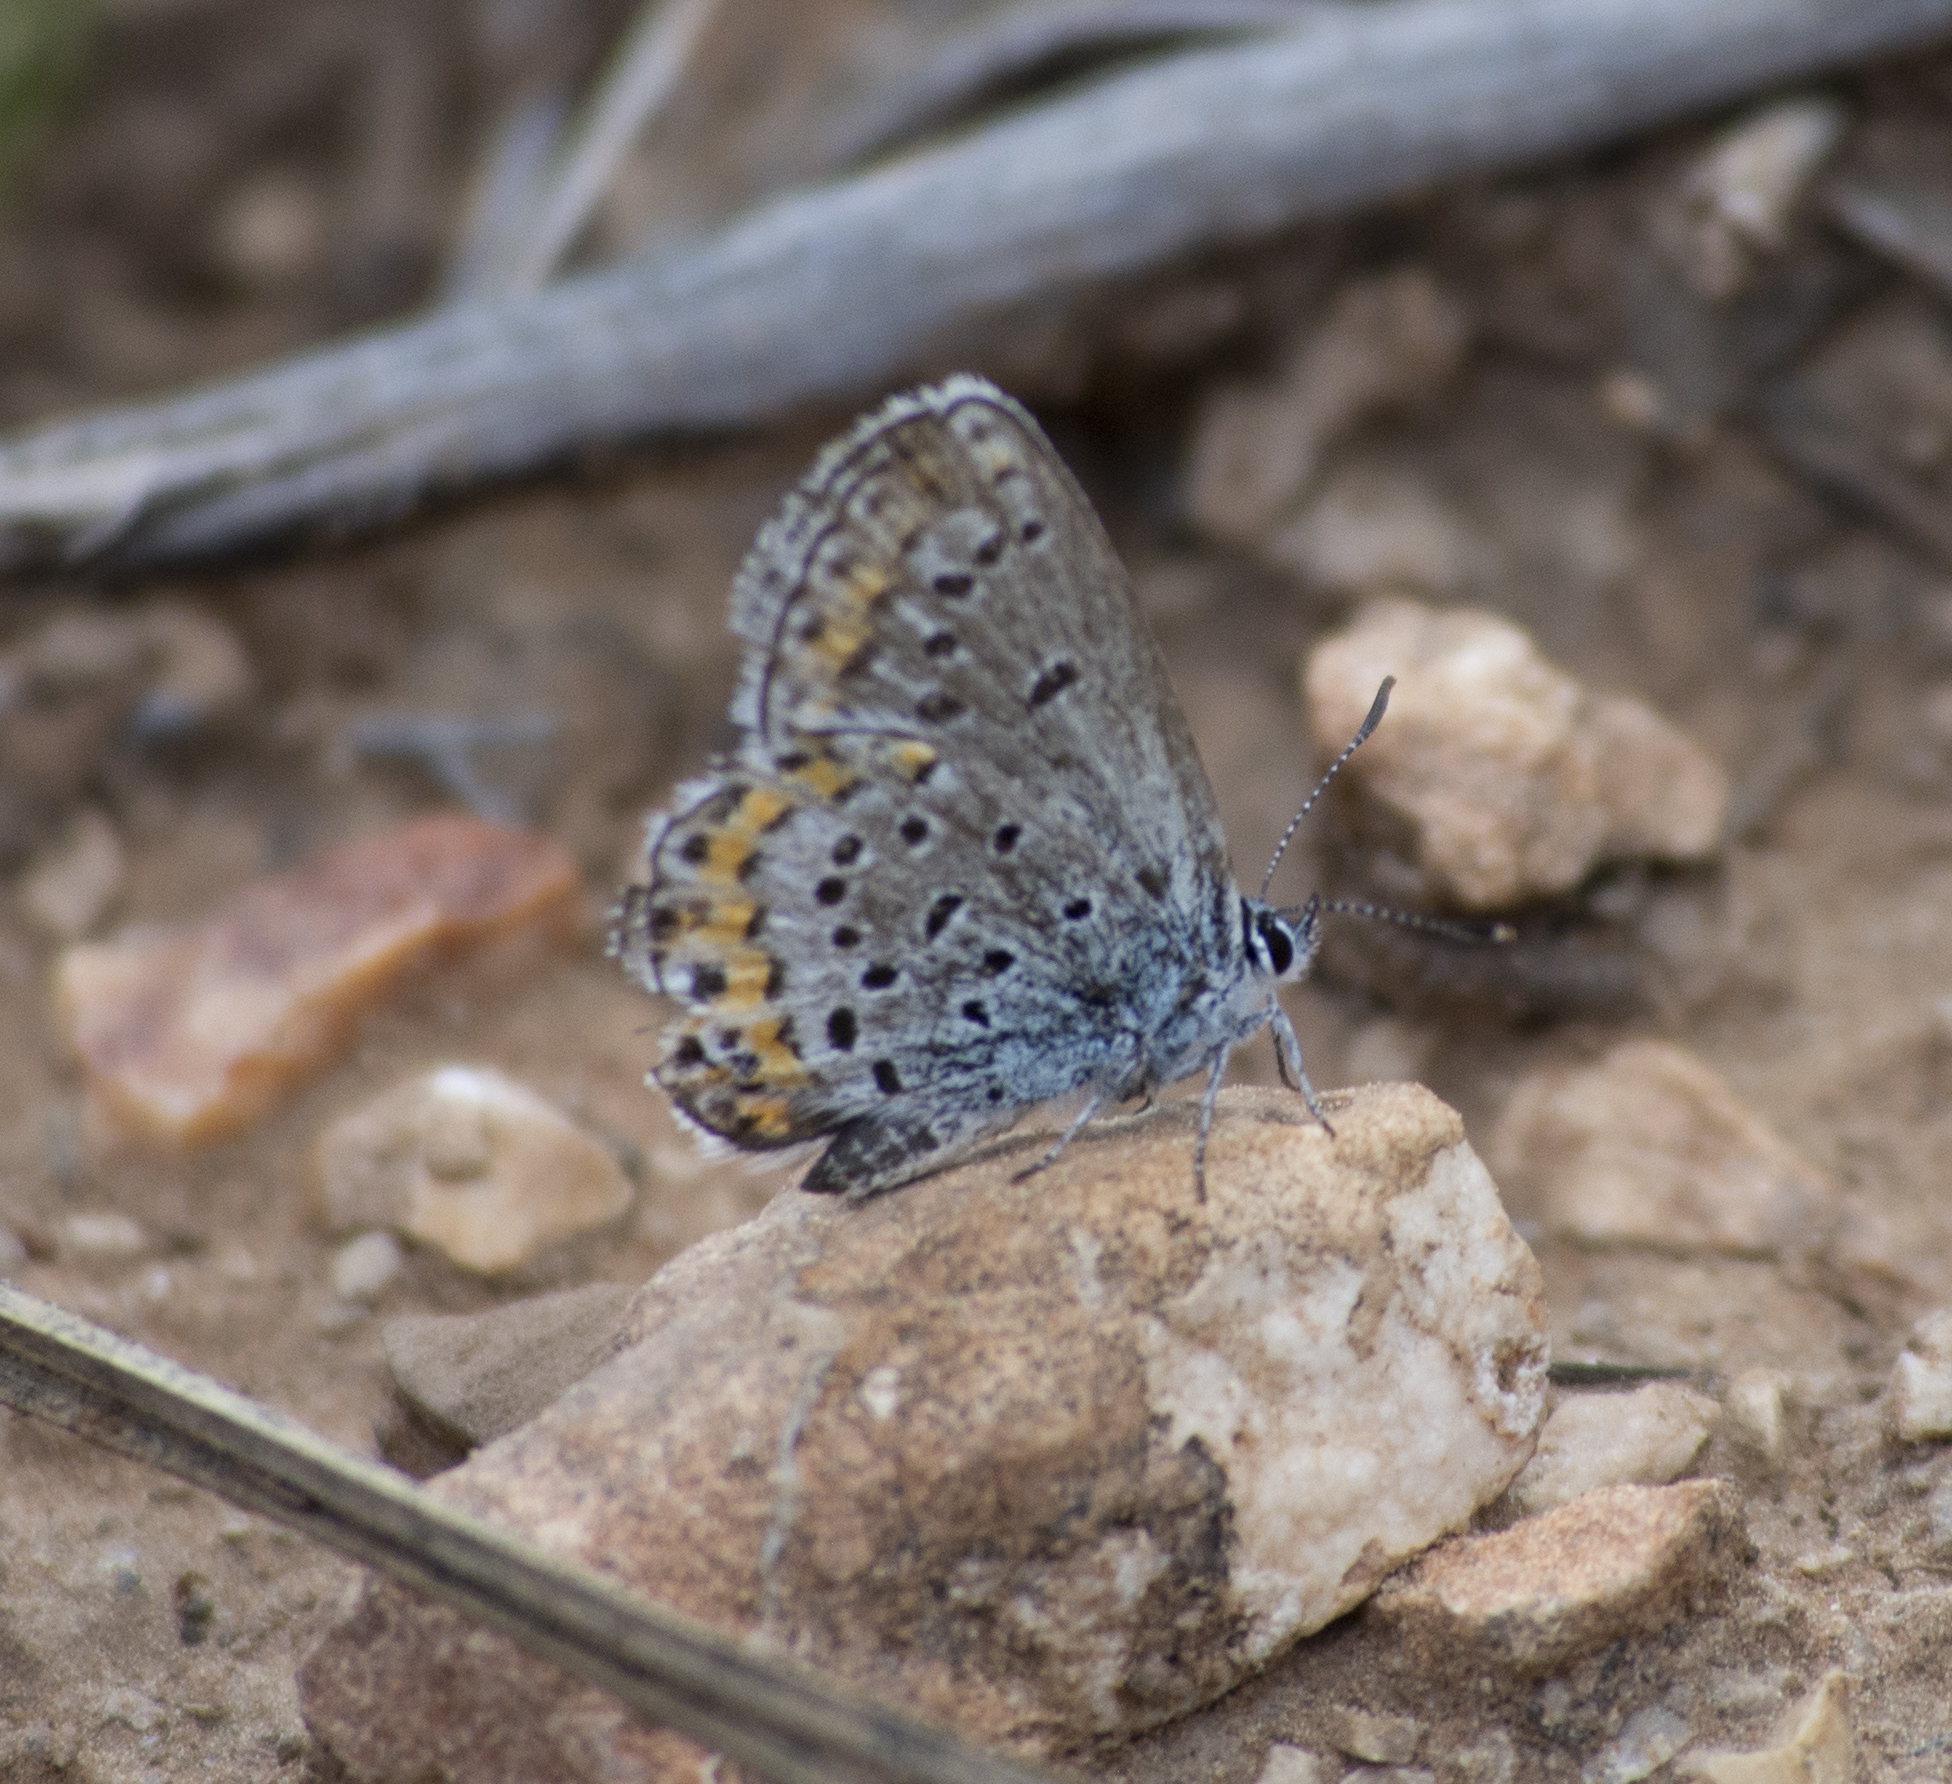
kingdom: Animalia
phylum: Arthropoda
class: Insecta
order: Lepidoptera
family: Lycaenidae
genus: Lycaeides
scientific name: Lycaeides melissa
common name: Melissa blue
